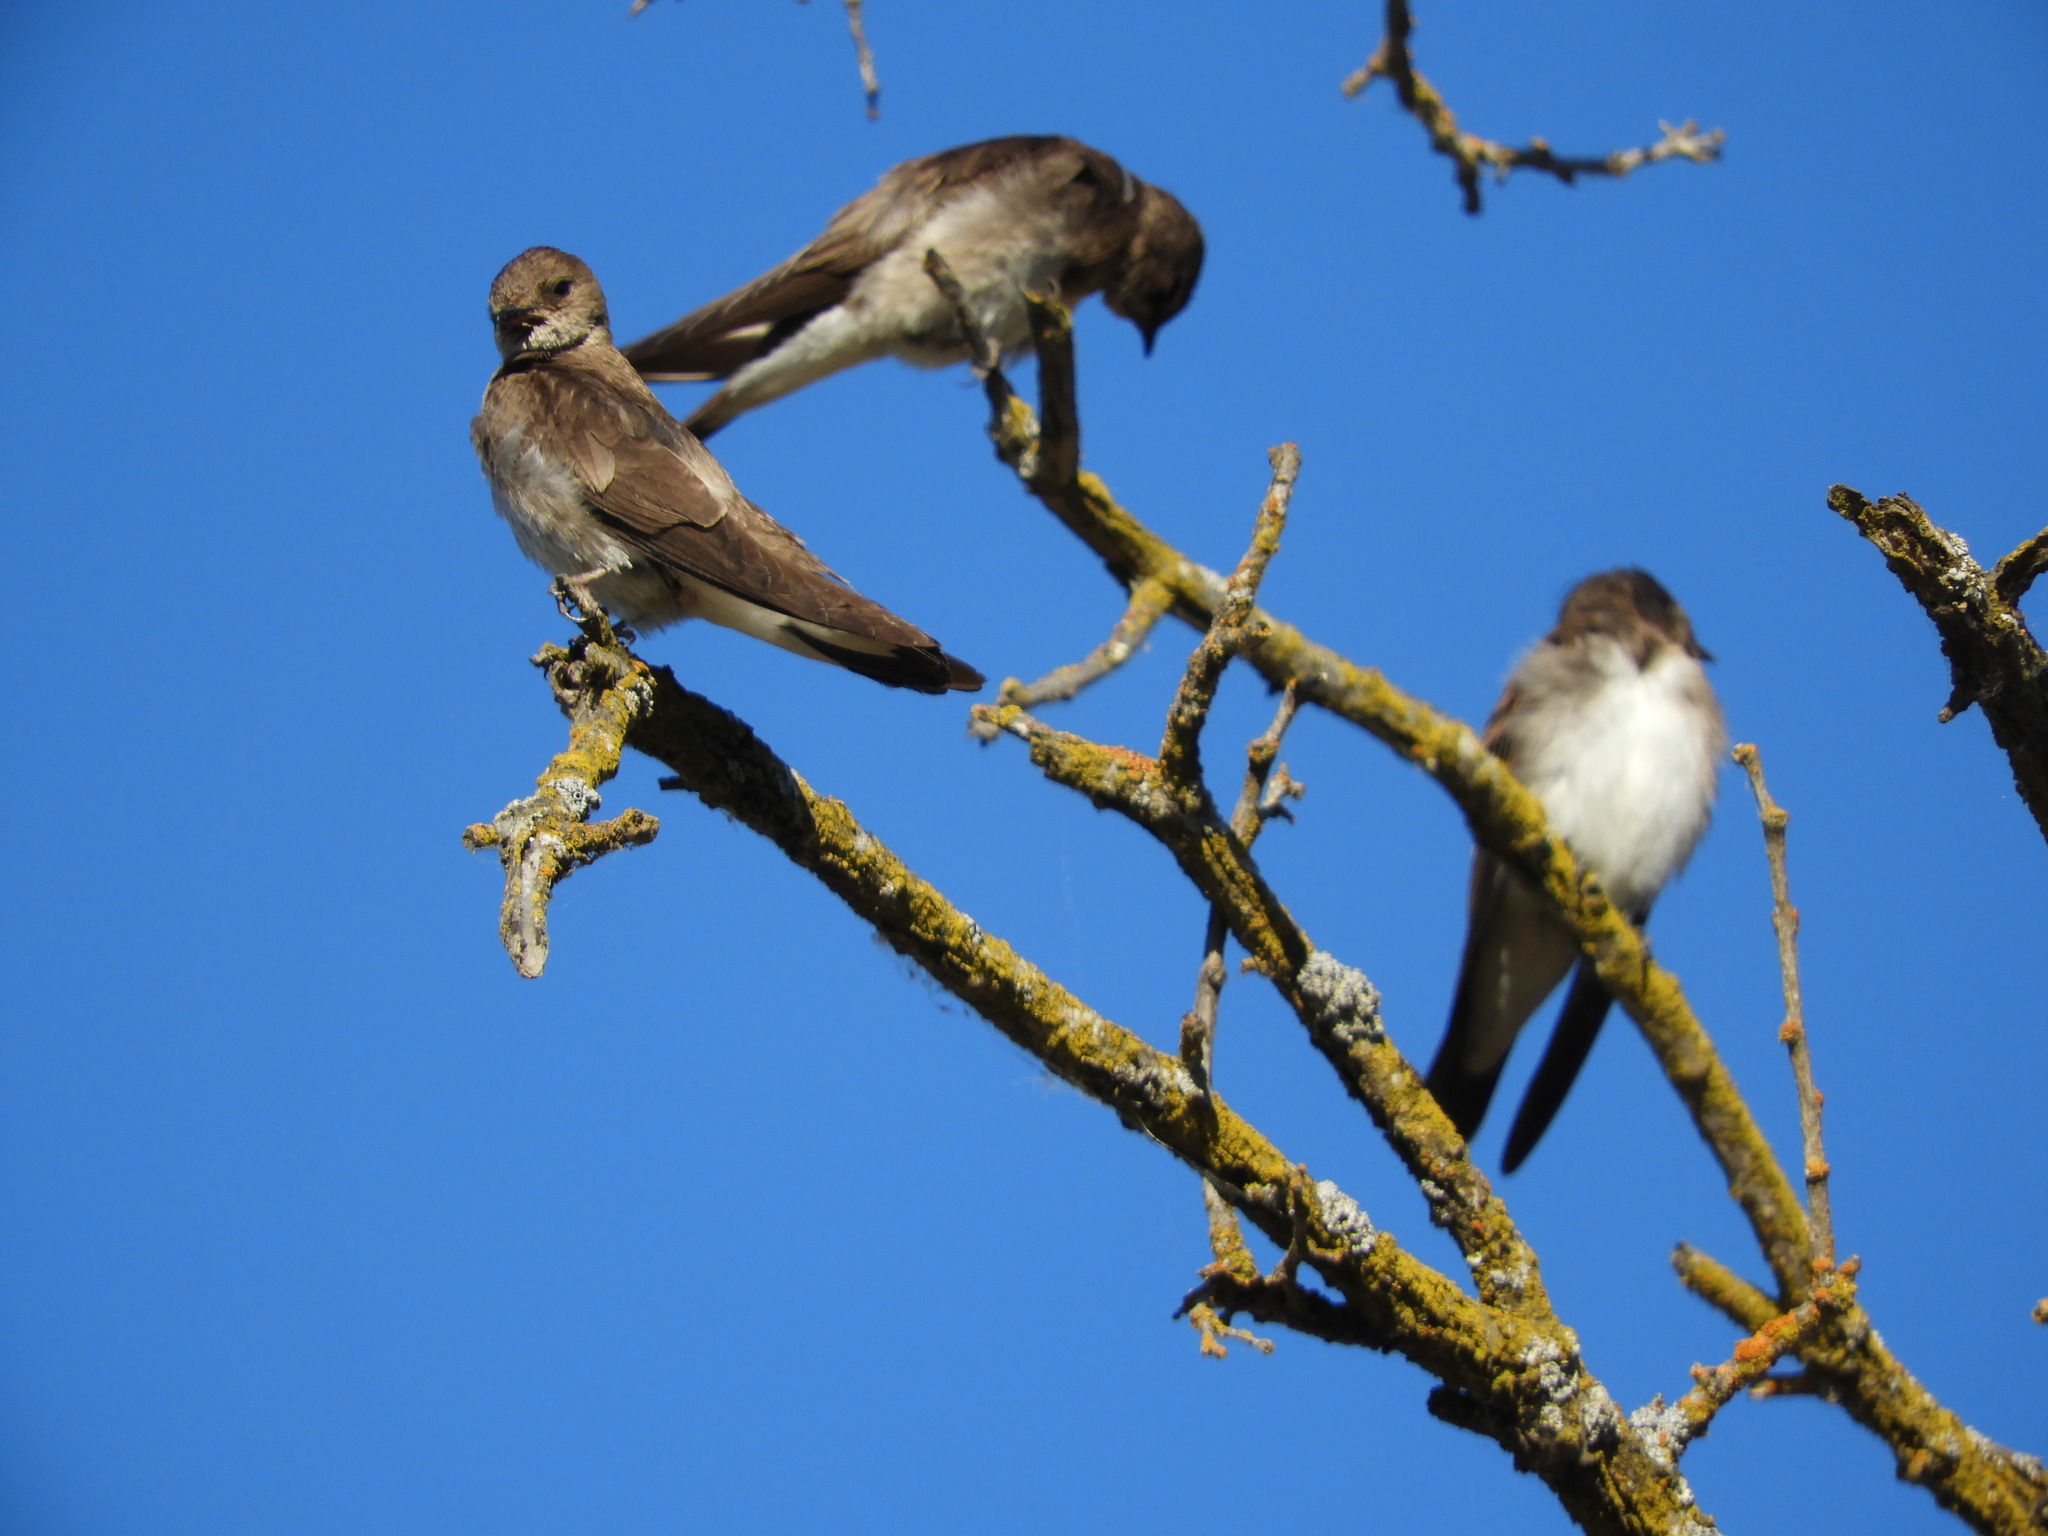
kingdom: Animalia
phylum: Chordata
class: Aves
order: Passeriformes
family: Hirundinidae
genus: Stelgidopteryx
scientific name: Stelgidopteryx serripennis
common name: Northern rough-winged swallow
